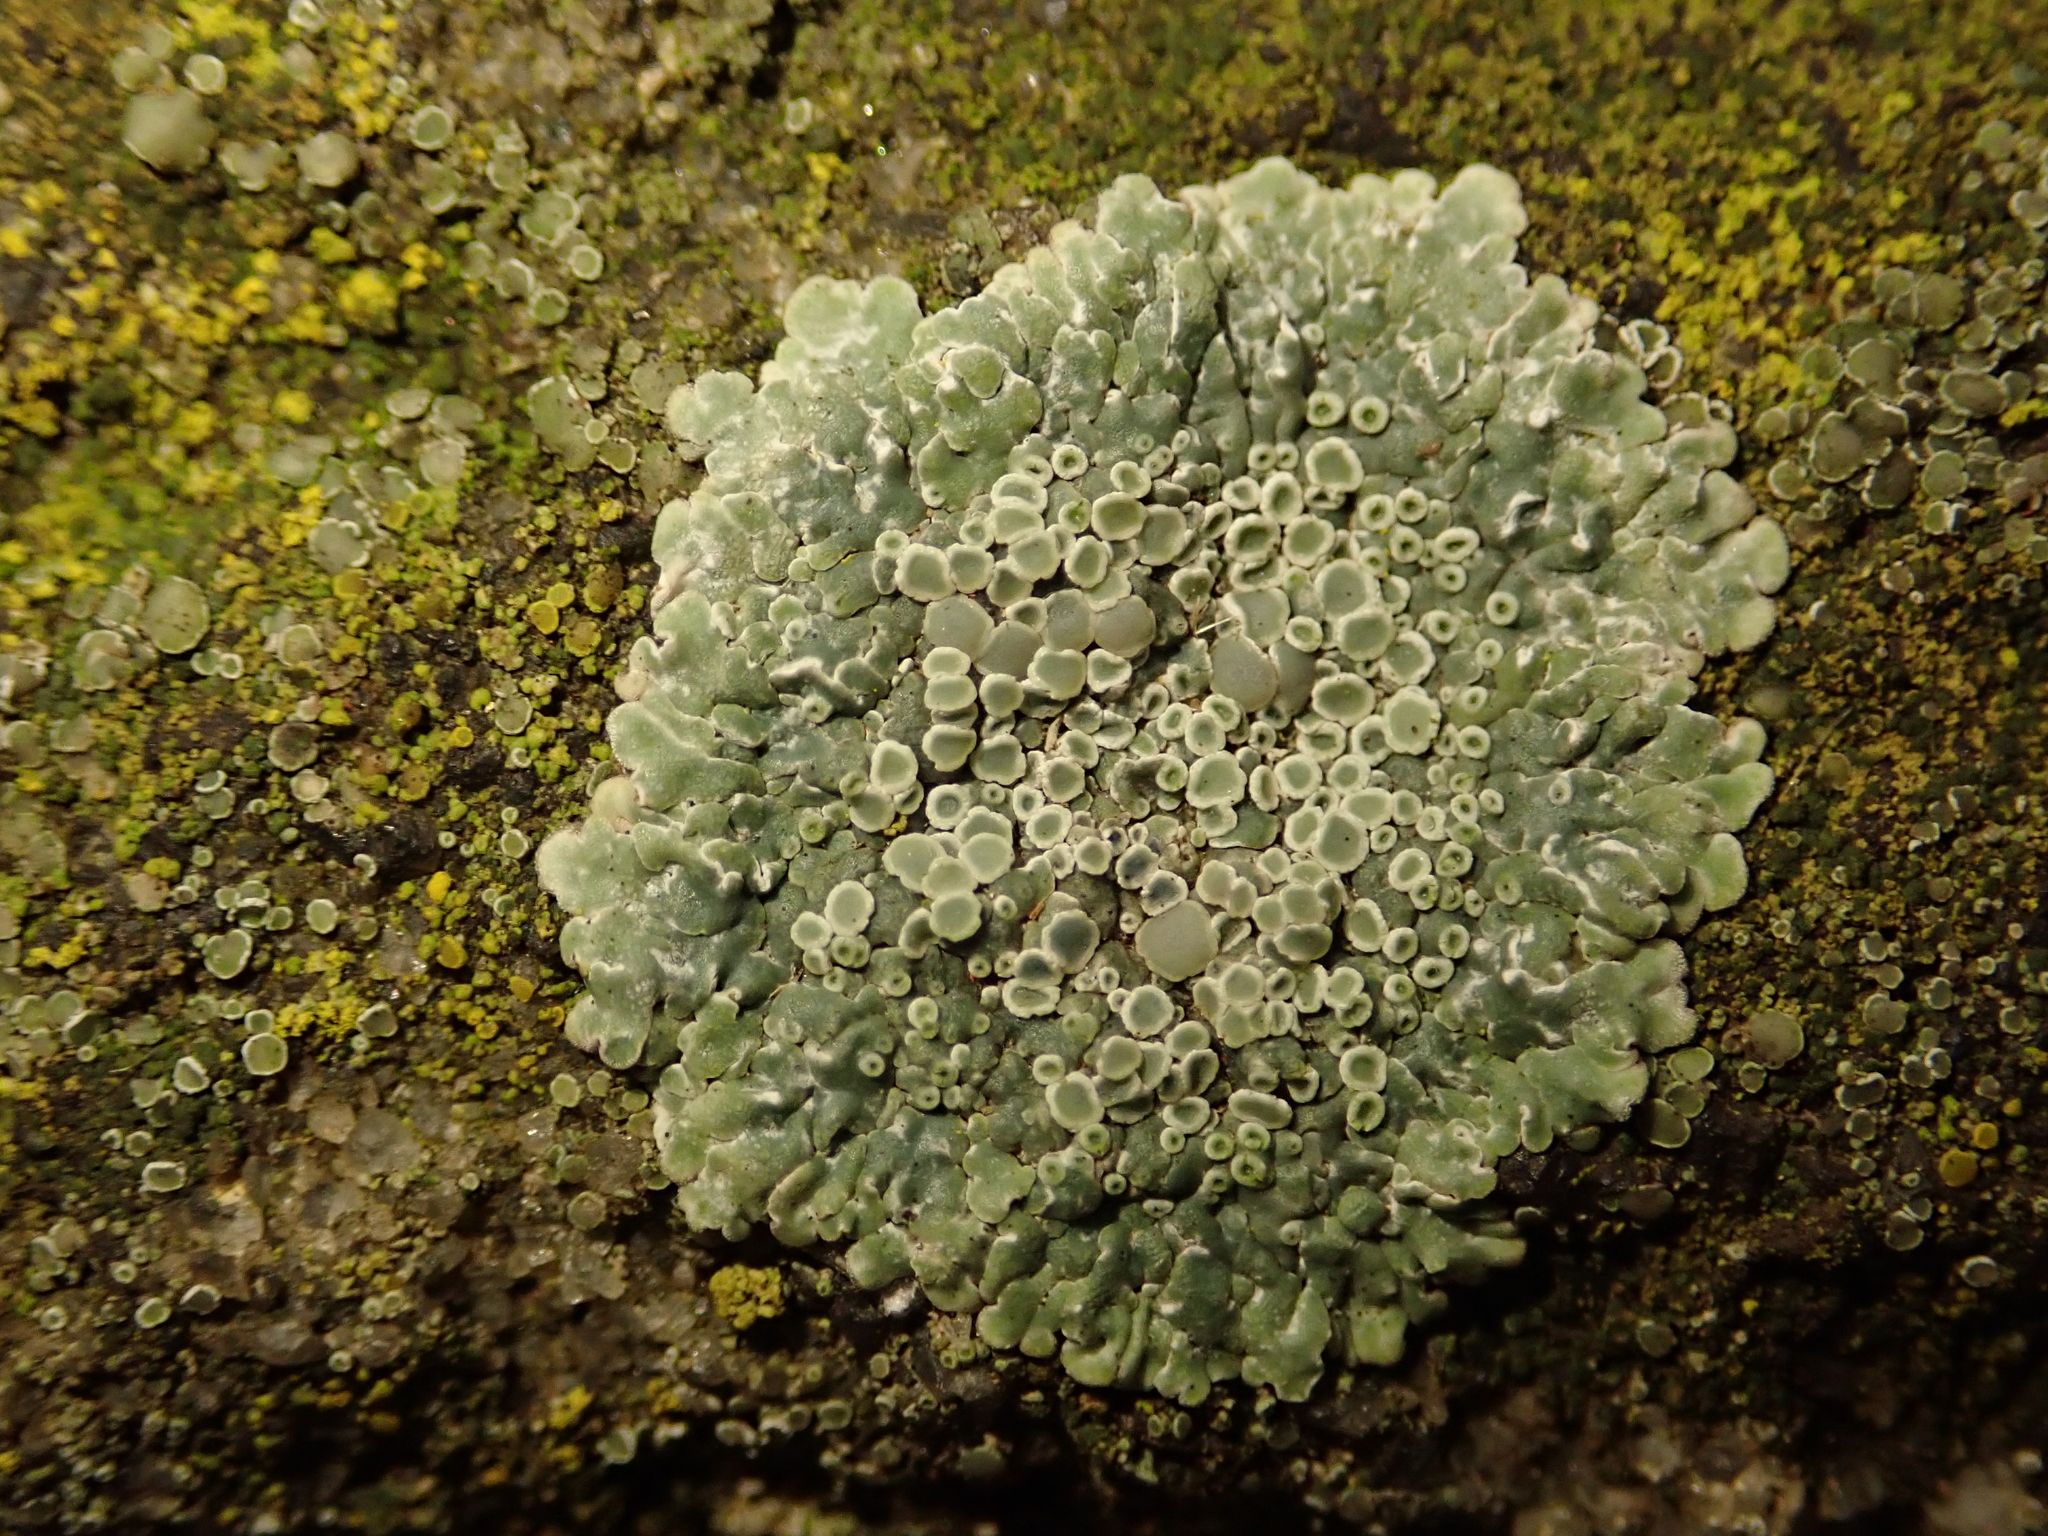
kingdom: Fungi
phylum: Ascomycota
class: Lecanoromycetes
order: Lecanorales
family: Lecanoraceae
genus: Protoparmeliopsis
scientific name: Protoparmeliopsis muralis
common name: Stonewall rim lichen
